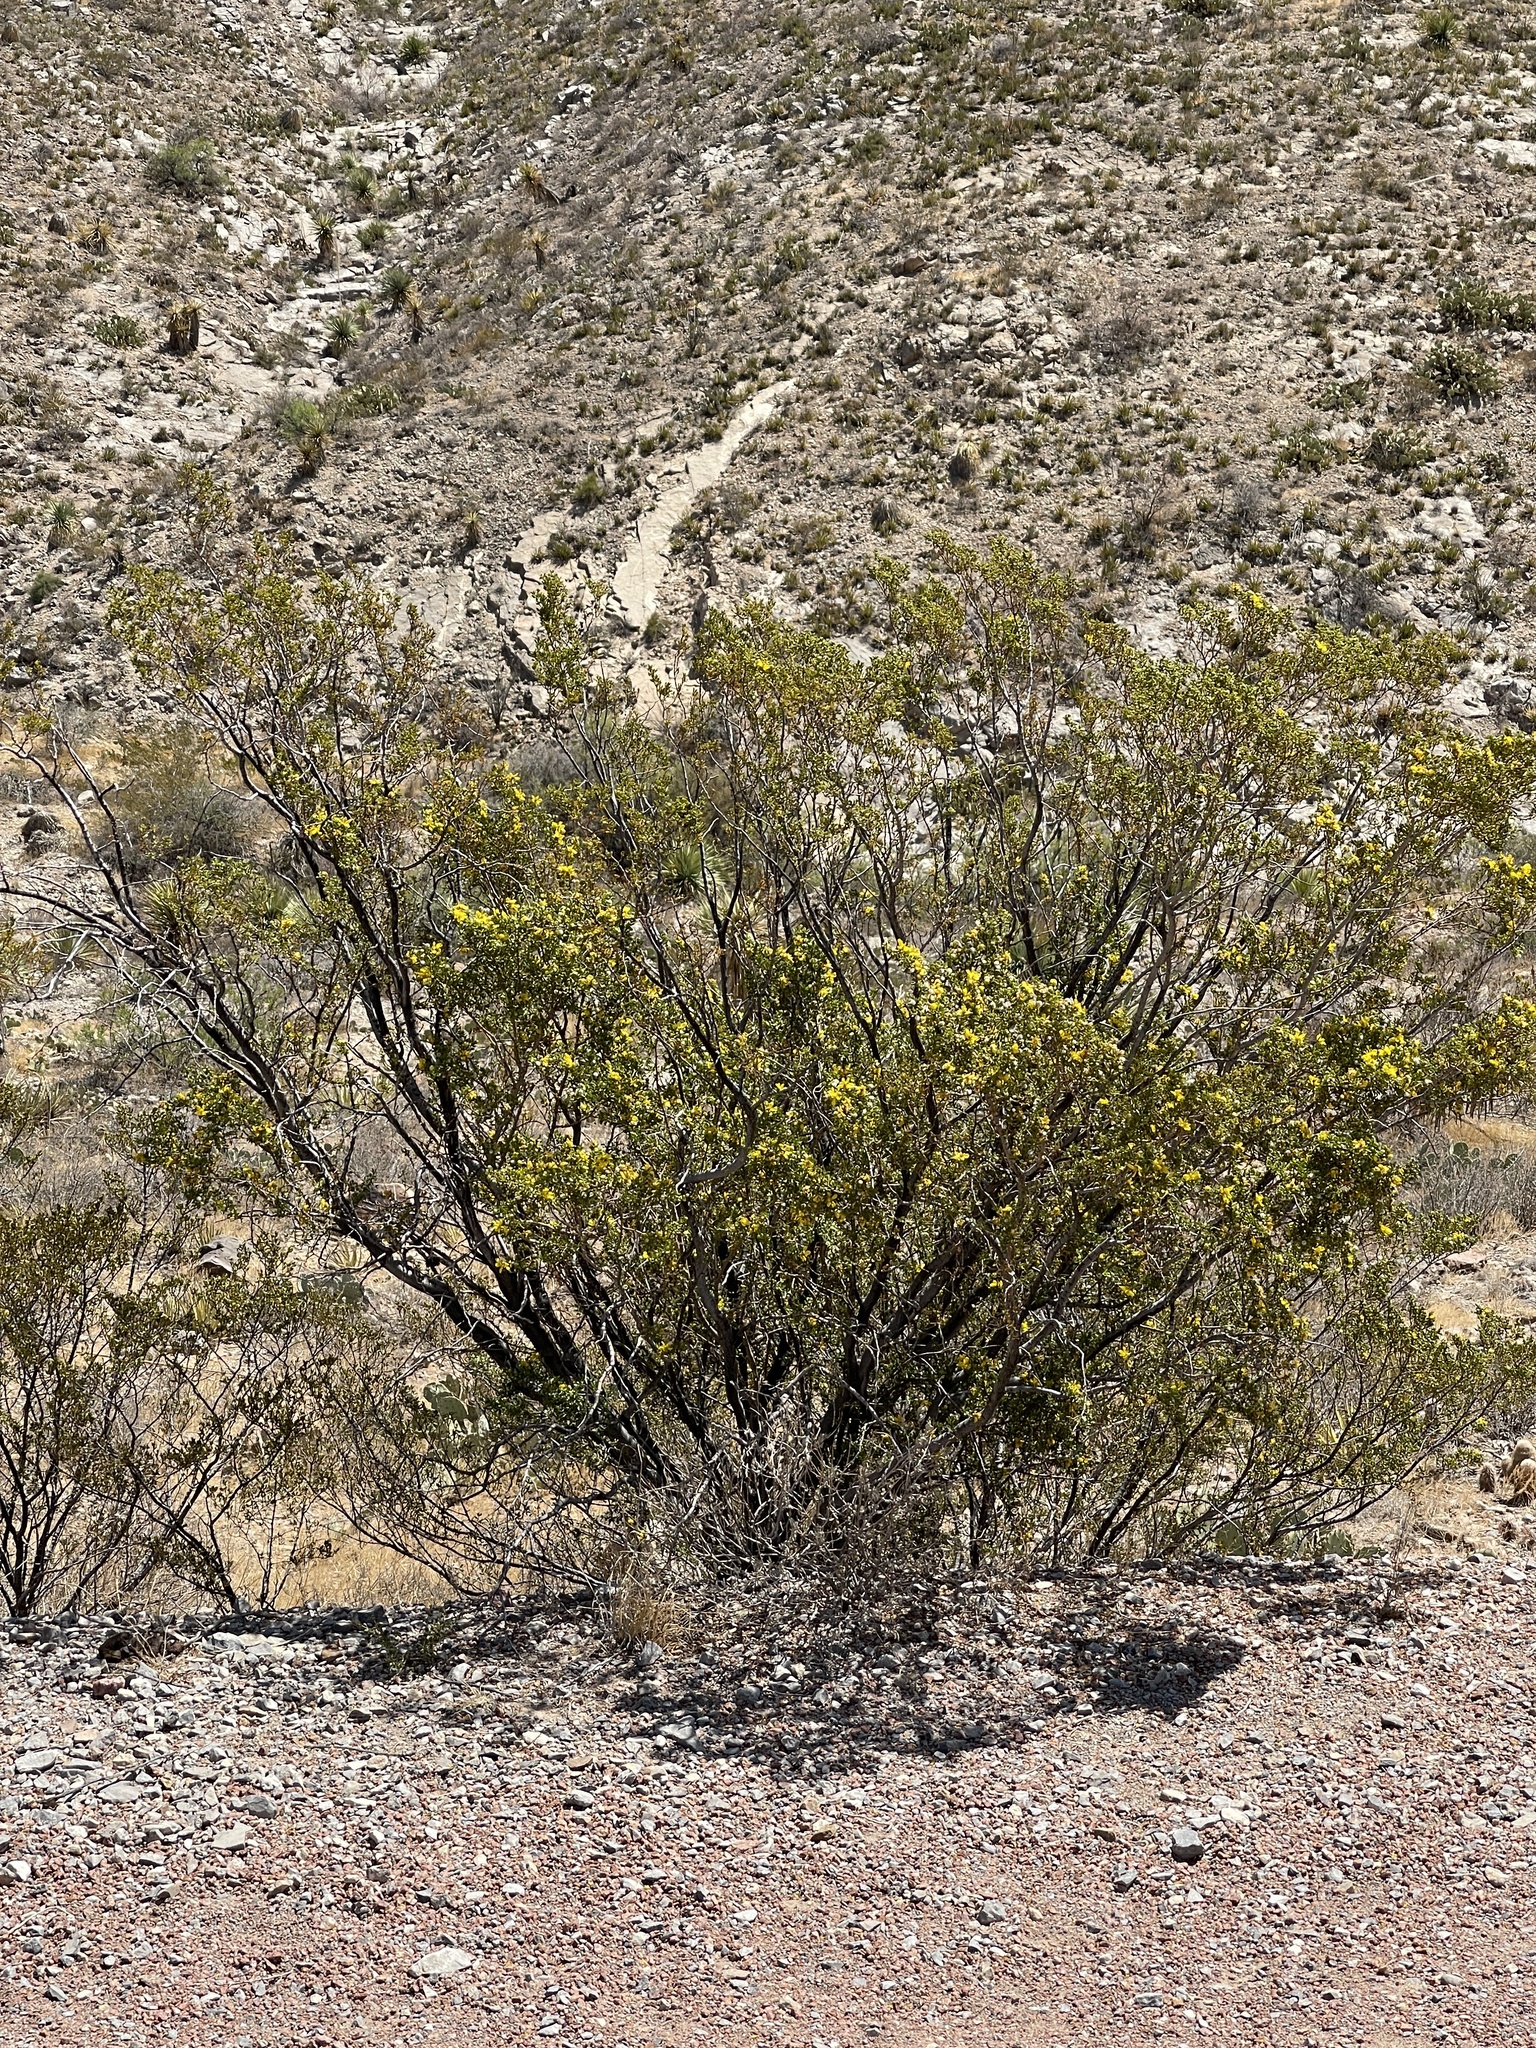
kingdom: Plantae
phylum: Tracheophyta
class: Magnoliopsida
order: Zygophyllales
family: Zygophyllaceae
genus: Larrea
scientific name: Larrea tridentata
